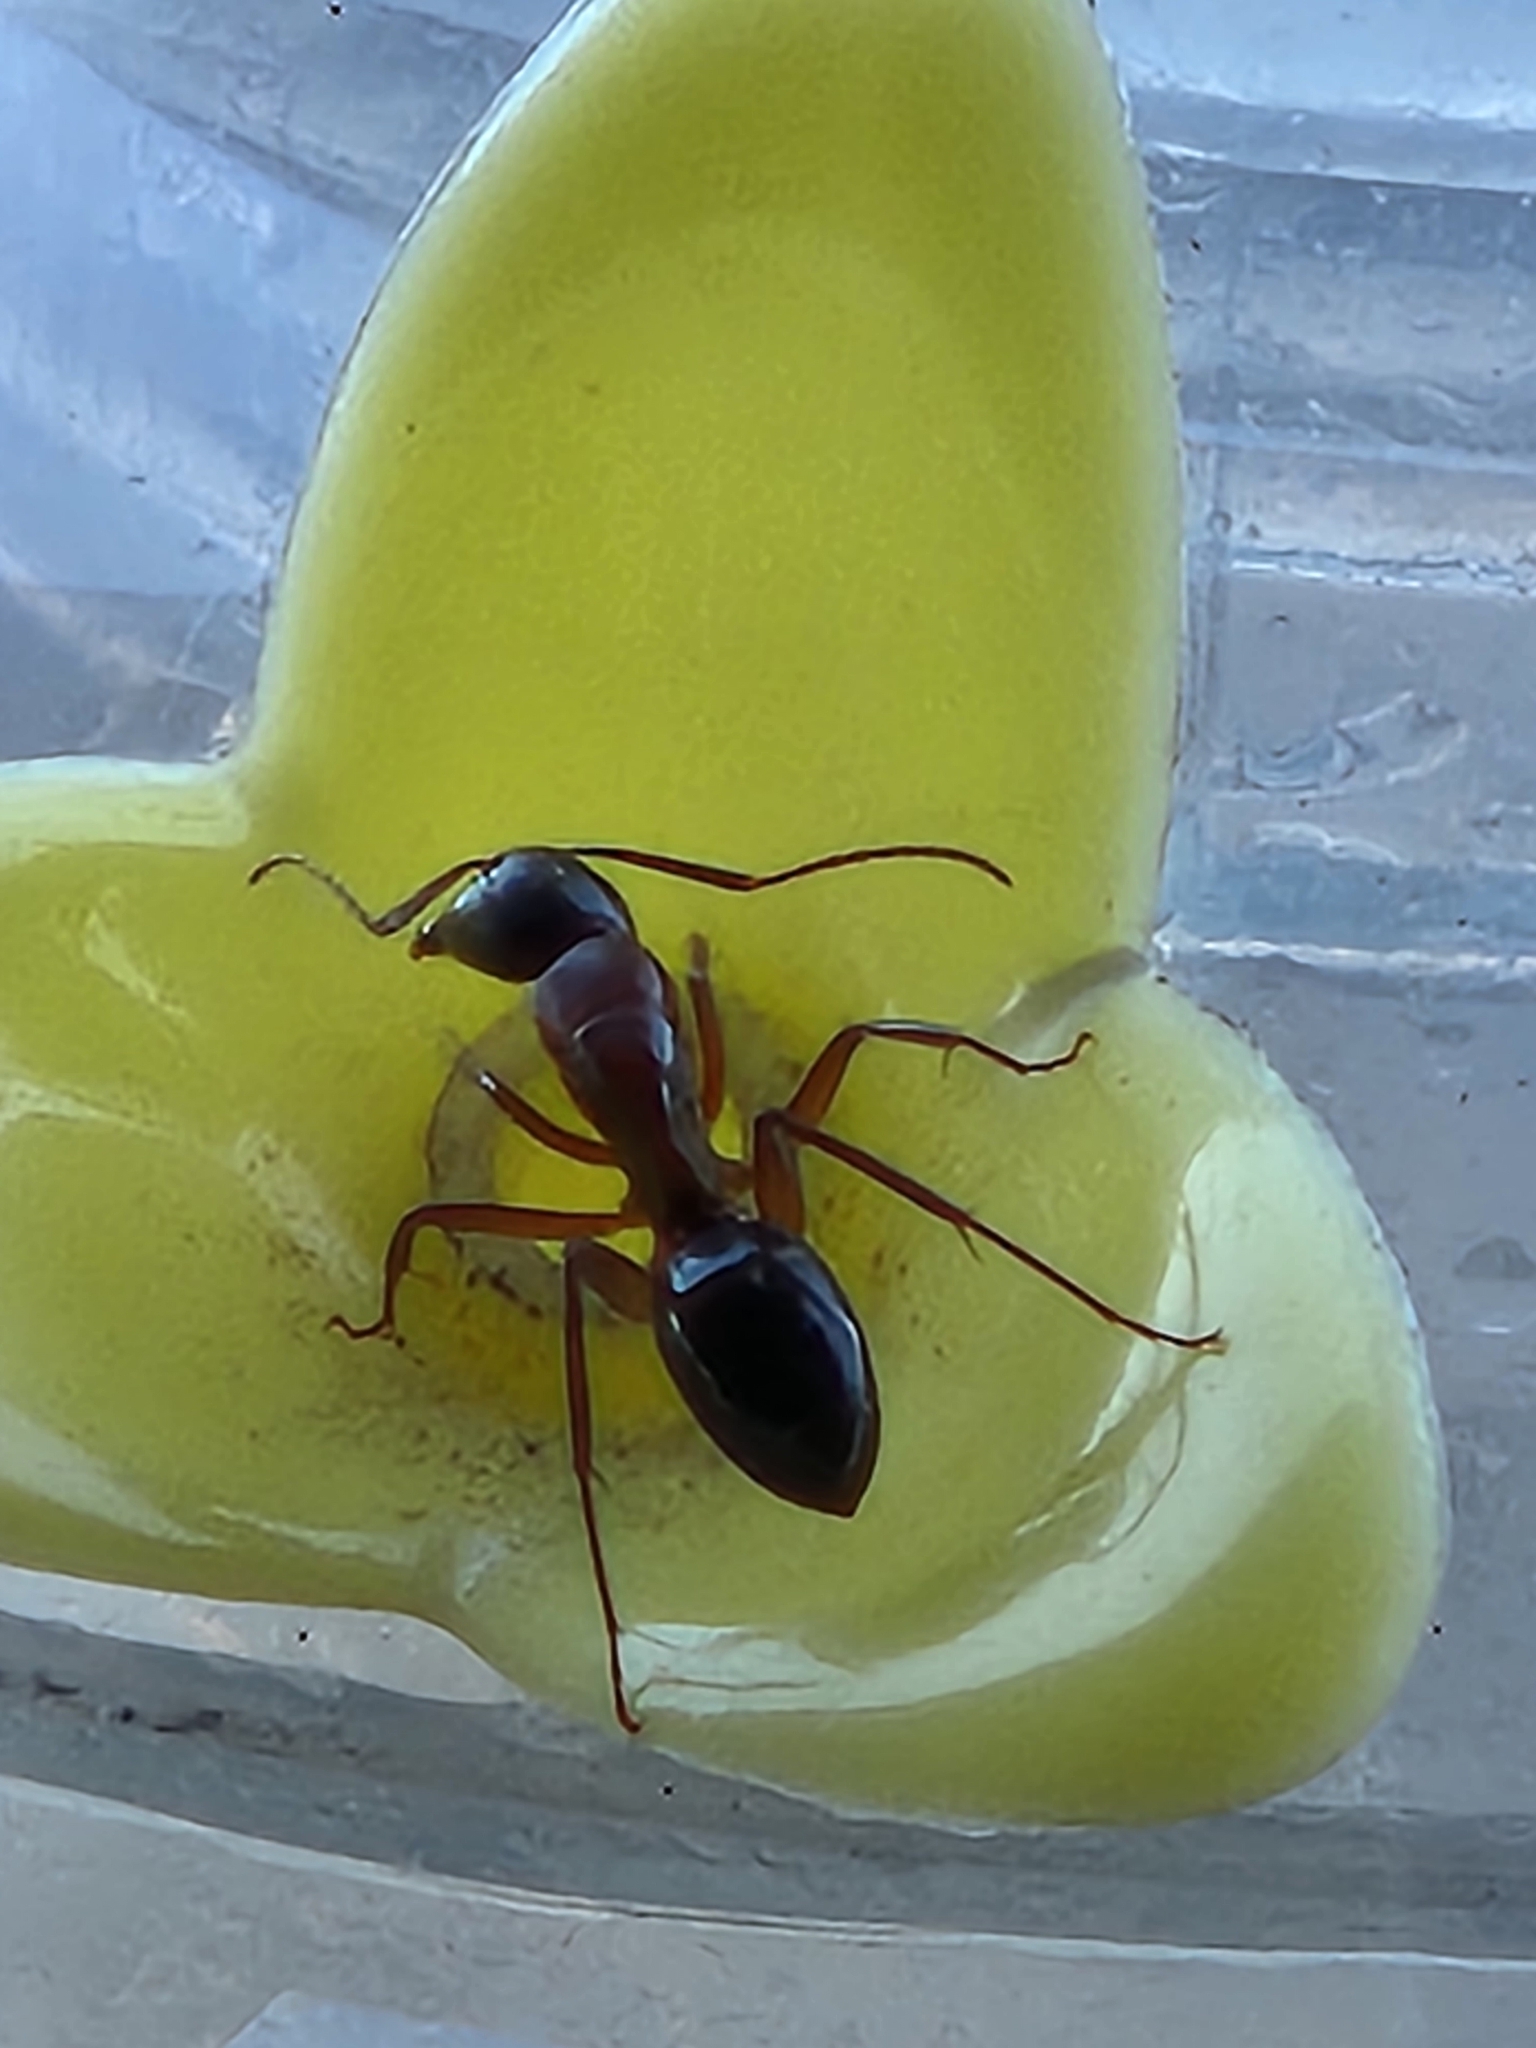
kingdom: Animalia
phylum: Arthropoda
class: Insecta
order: Hymenoptera
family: Formicidae
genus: Camponotus
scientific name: Camponotus texanus
